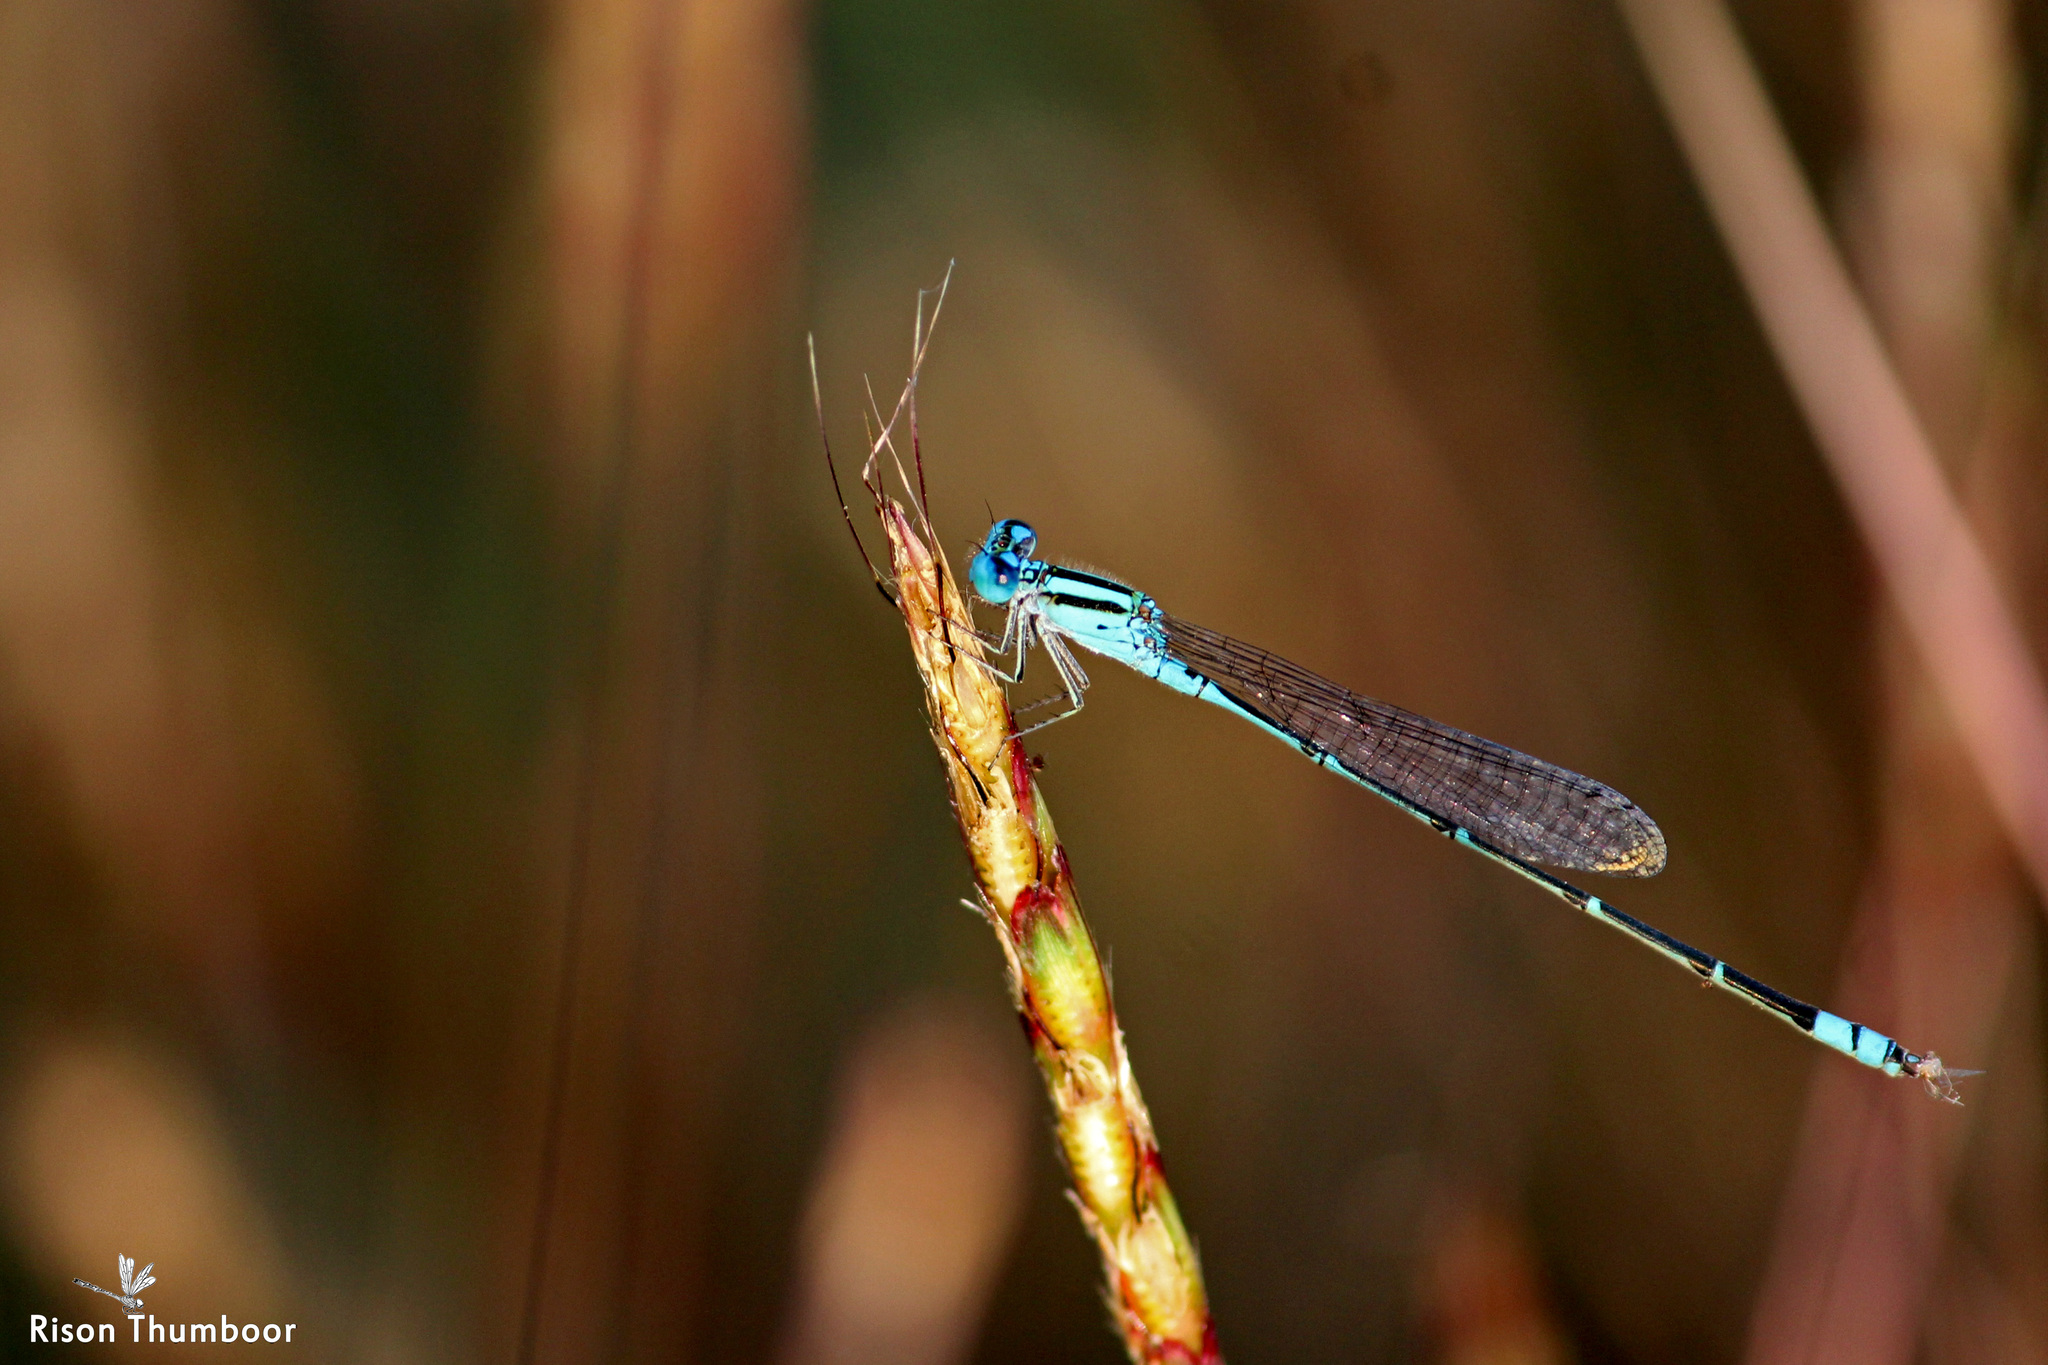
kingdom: Animalia
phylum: Arthropoda
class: Insecta
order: Odonata
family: Coenagrionidae
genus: Pseudagrion
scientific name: Pseudagrion microcephalum
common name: Blue riverdamsel
